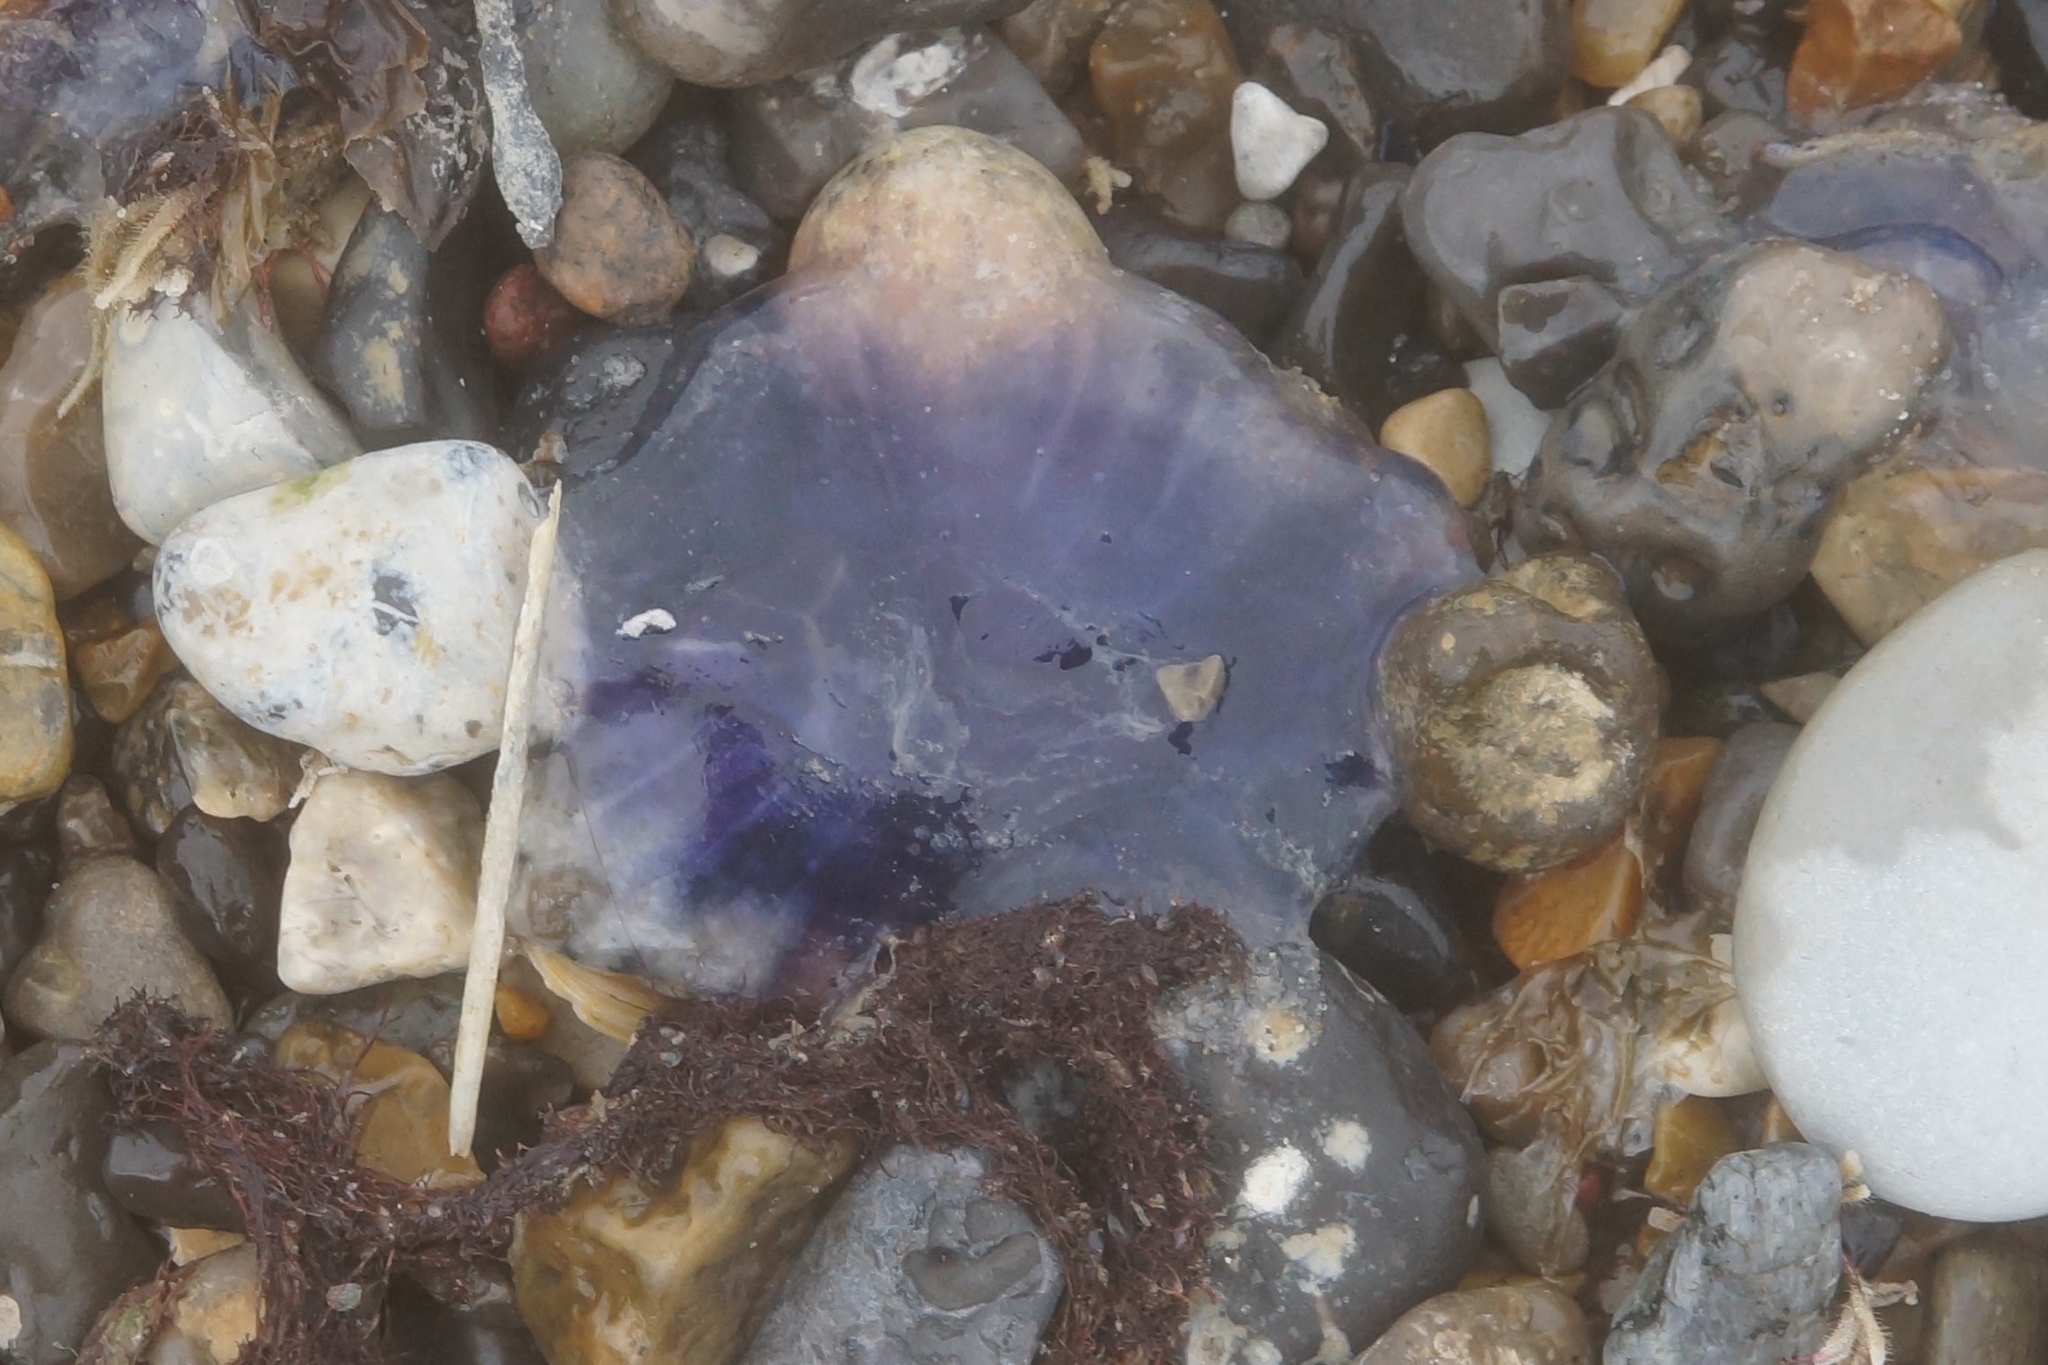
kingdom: Animalia
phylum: Cnidaria
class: Scyphozoa
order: Semaeostomeae
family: Cyaneidae
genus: Cyanea
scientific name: Cyanea lamarckii
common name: Blue jellyfish
